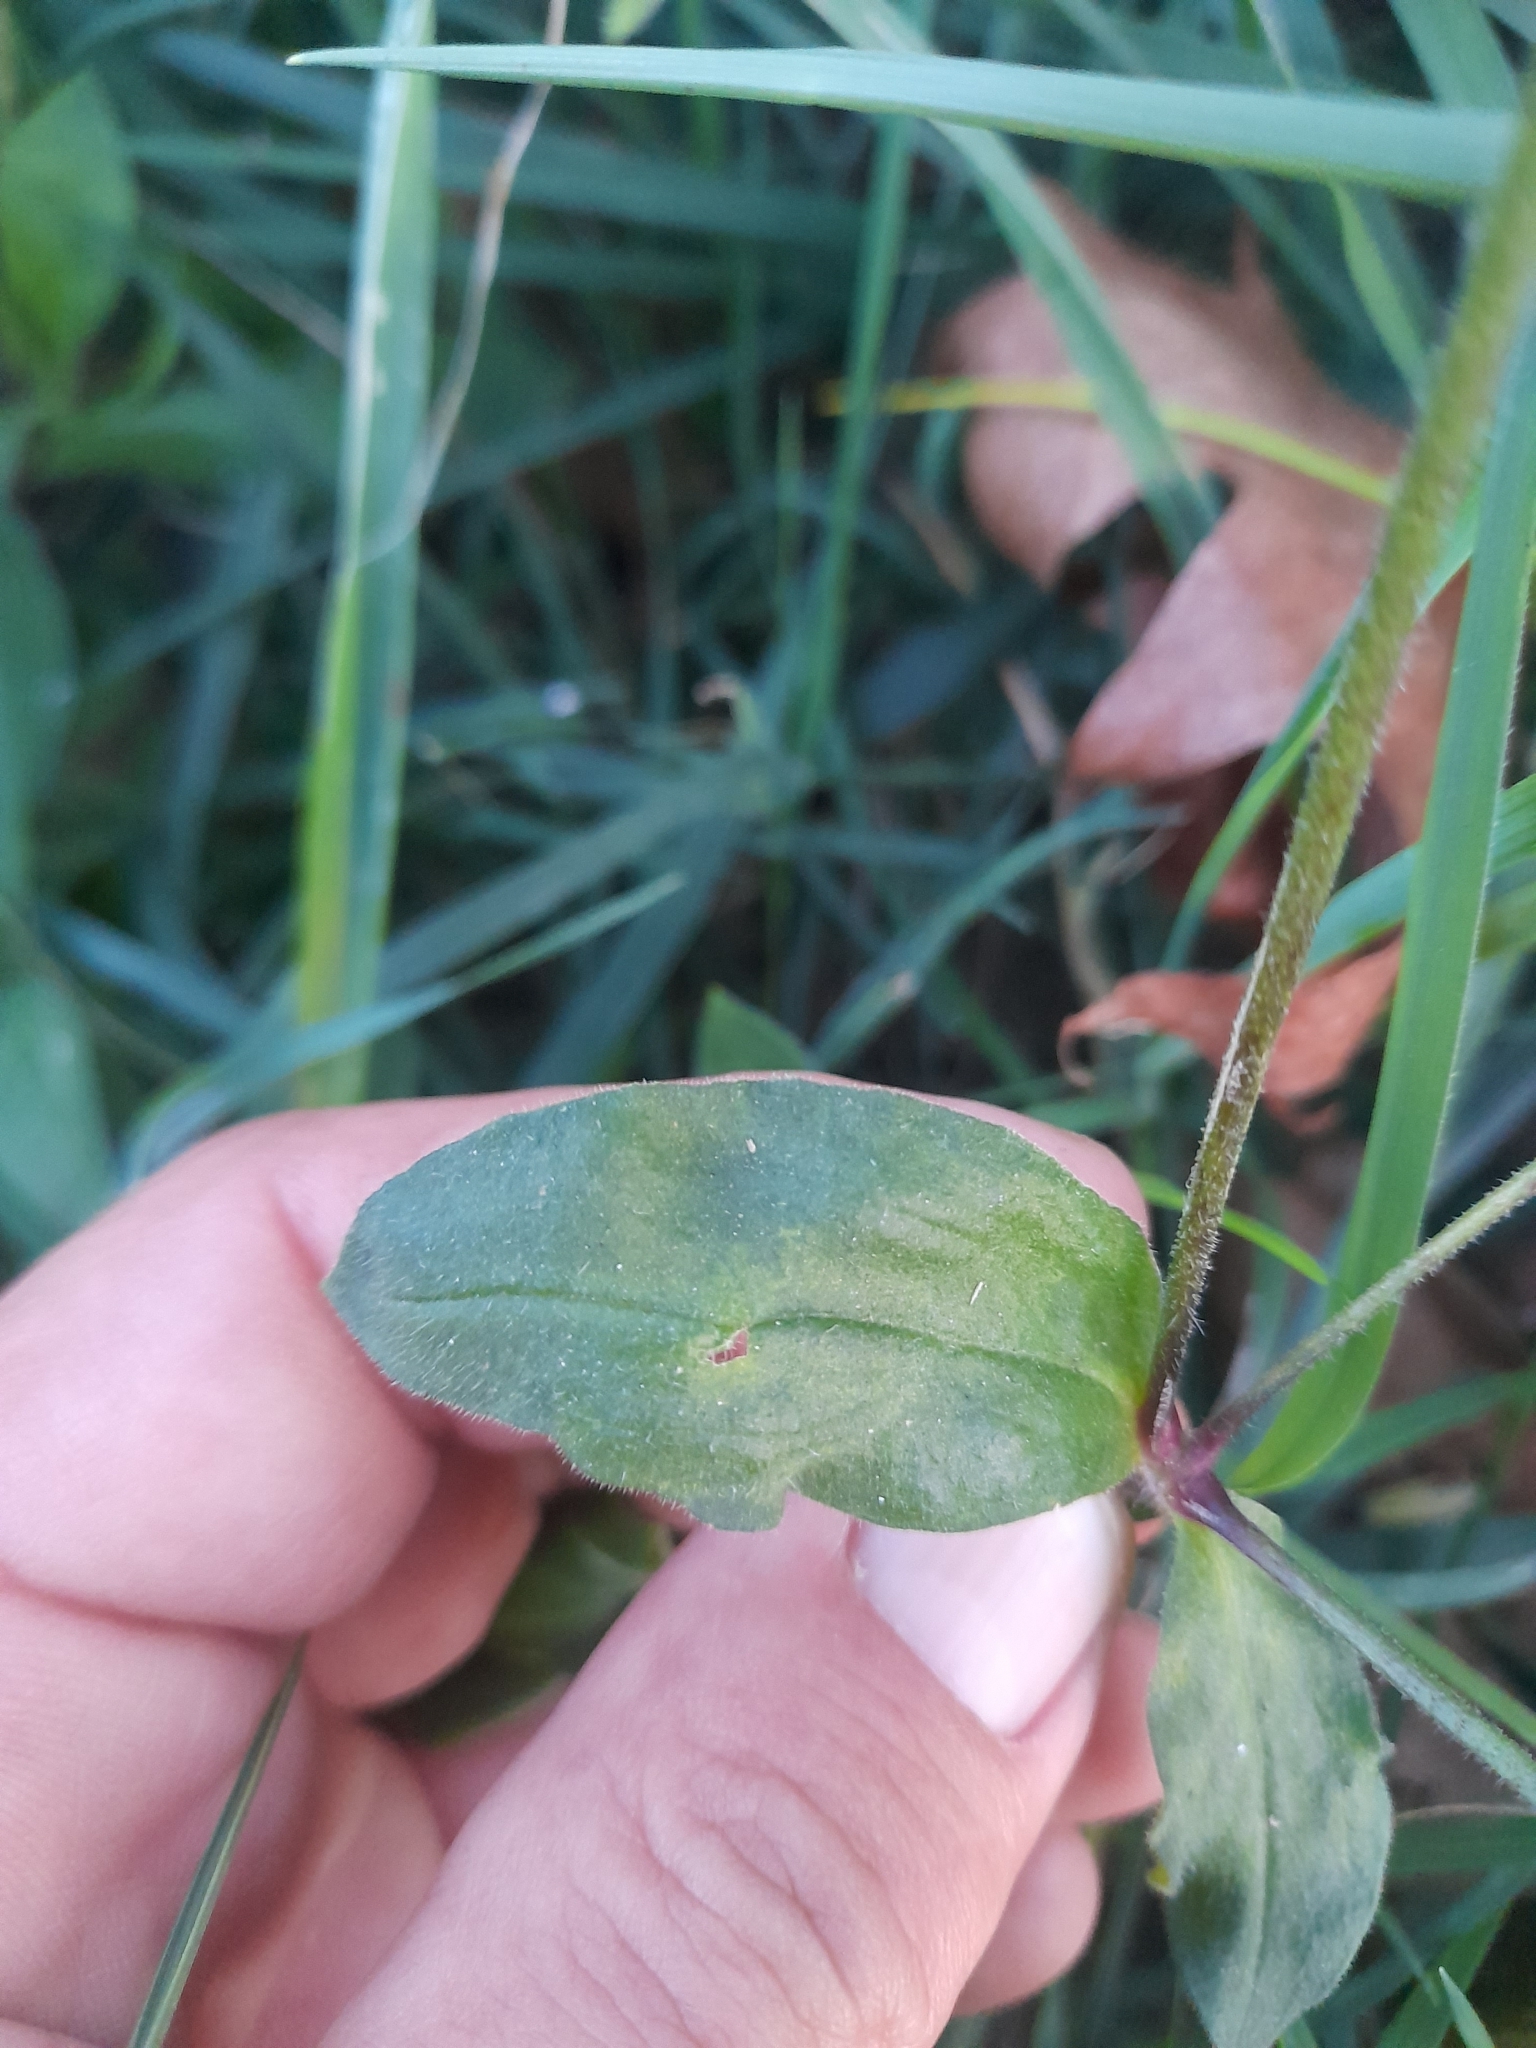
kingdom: Plantae
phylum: Tracheophyta
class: Magnoliopsida
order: Caryophyllales
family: Caryophyllaceae
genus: Silene
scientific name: Silene latifolia
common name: White campion
